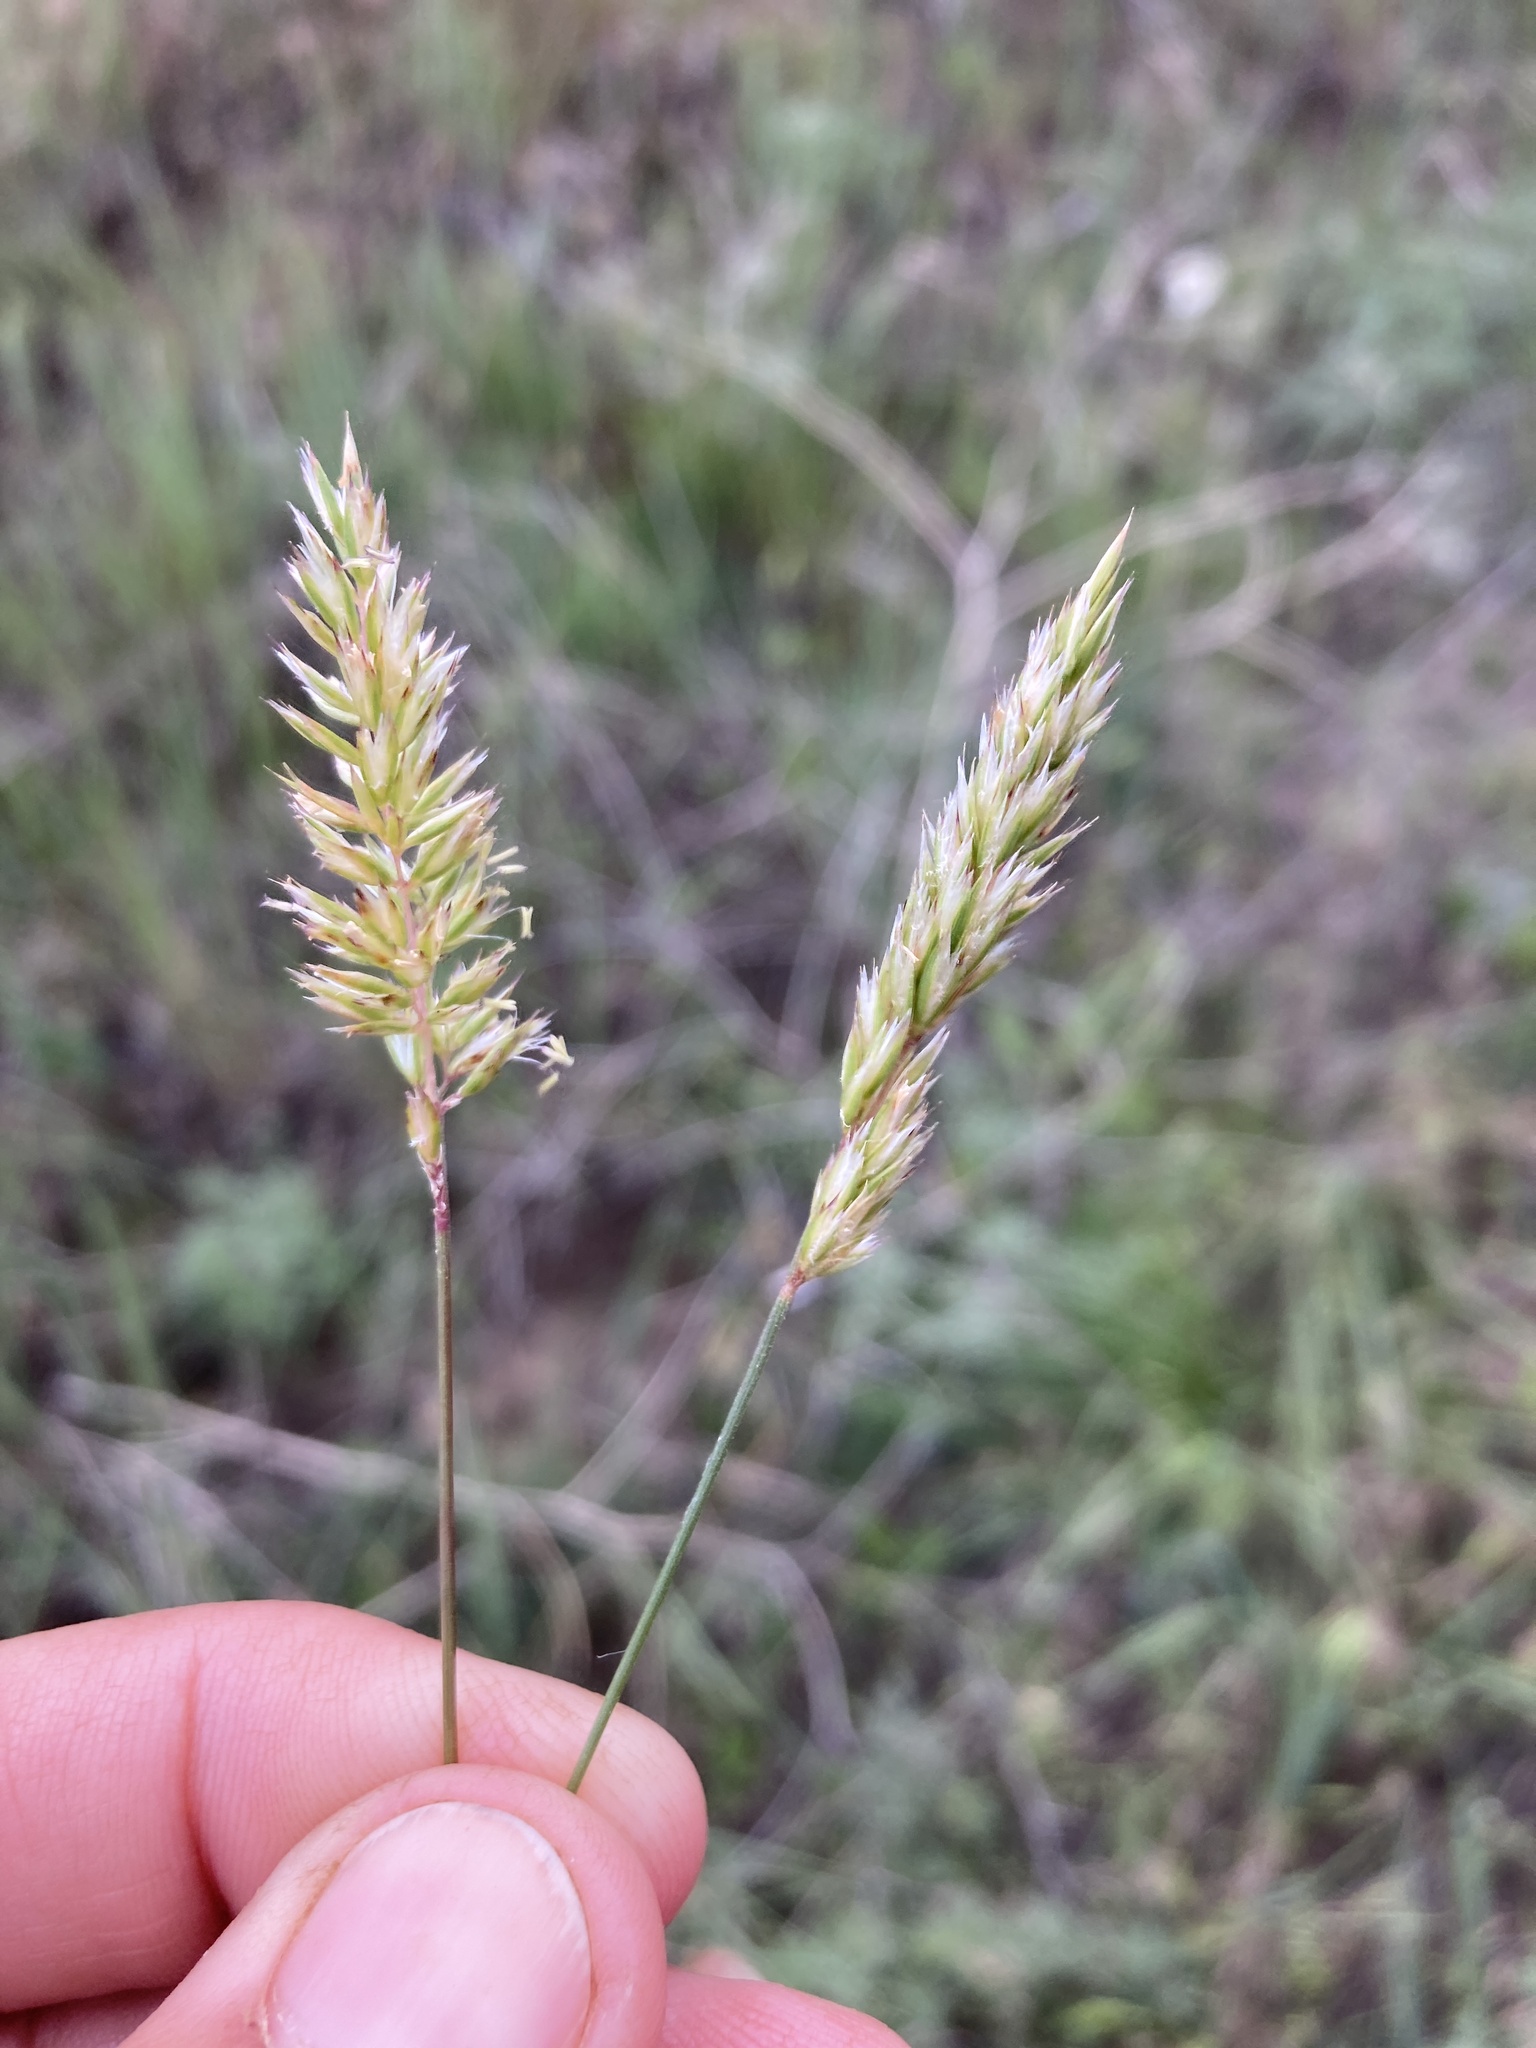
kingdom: Plantae
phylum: Tracheophyta
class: Liliopsida
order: Poales
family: Poaceae
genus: Koeleria
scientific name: Koeleria macrantha
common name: Crested hair-grass
